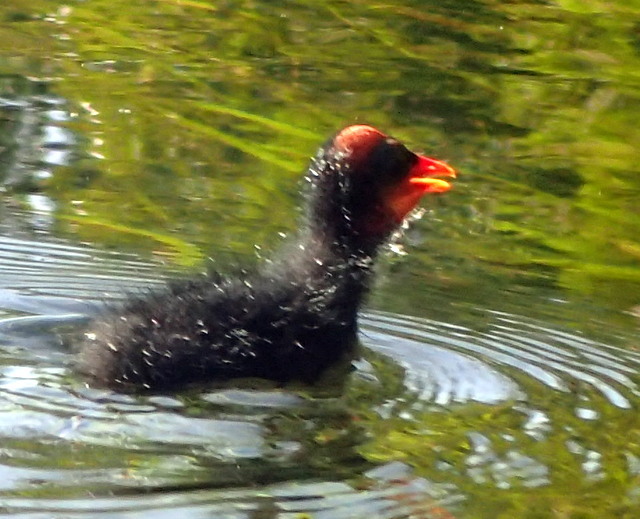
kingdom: Animalia
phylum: Chordata
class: Aves
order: Gruiformes
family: Rallidae
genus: Gallinula
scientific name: Gallinula chloropus
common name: Common moorhen
